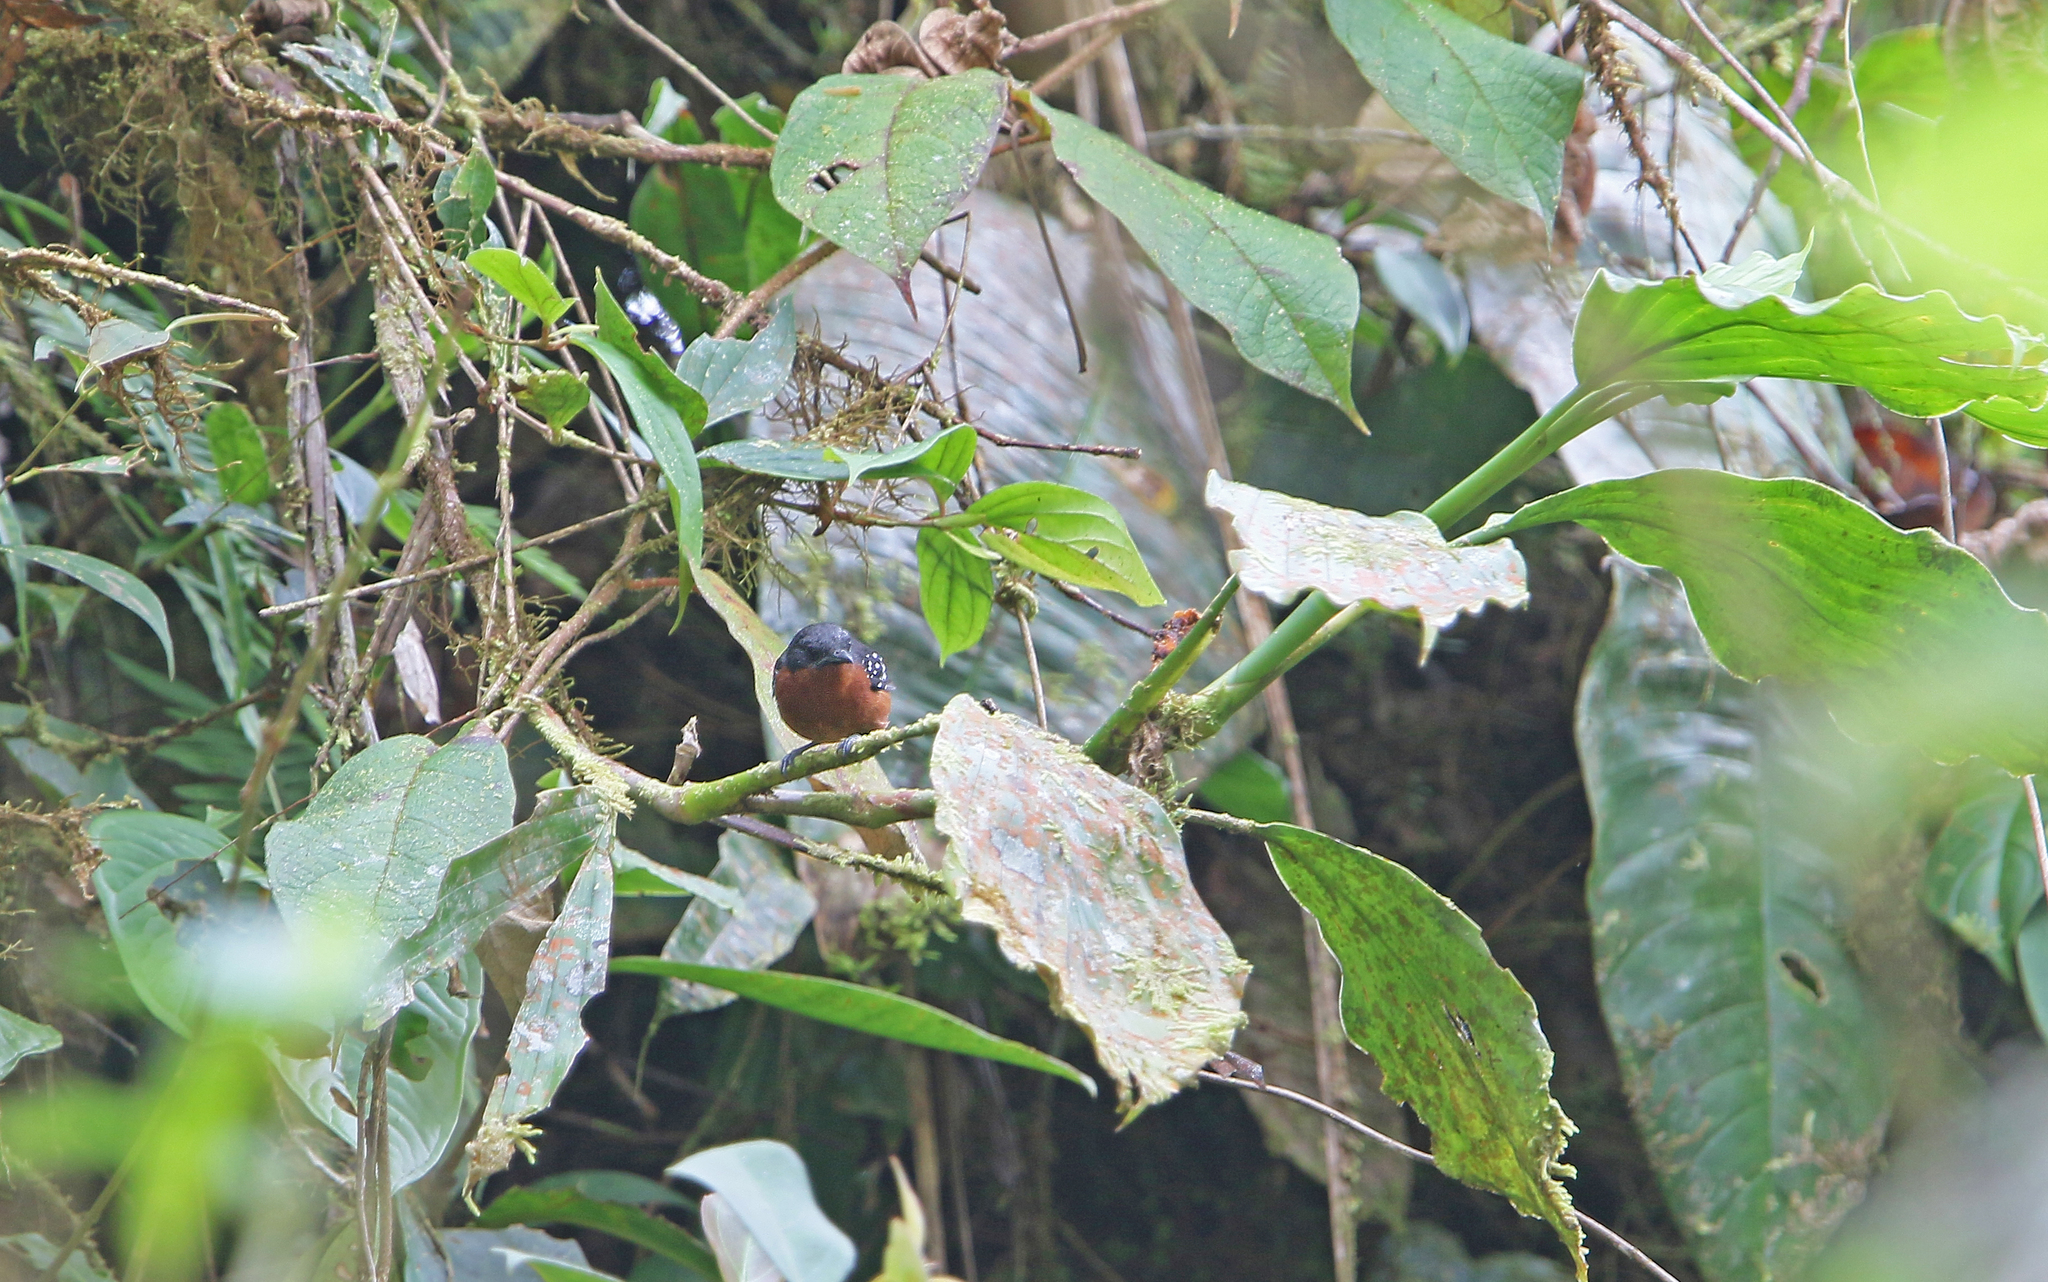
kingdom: Animalia
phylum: Chordata
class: Aves
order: Passeriformes
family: Thamnophilidae
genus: Microrhopias
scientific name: Microrhopias quixensis
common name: Dot-winged antwren
